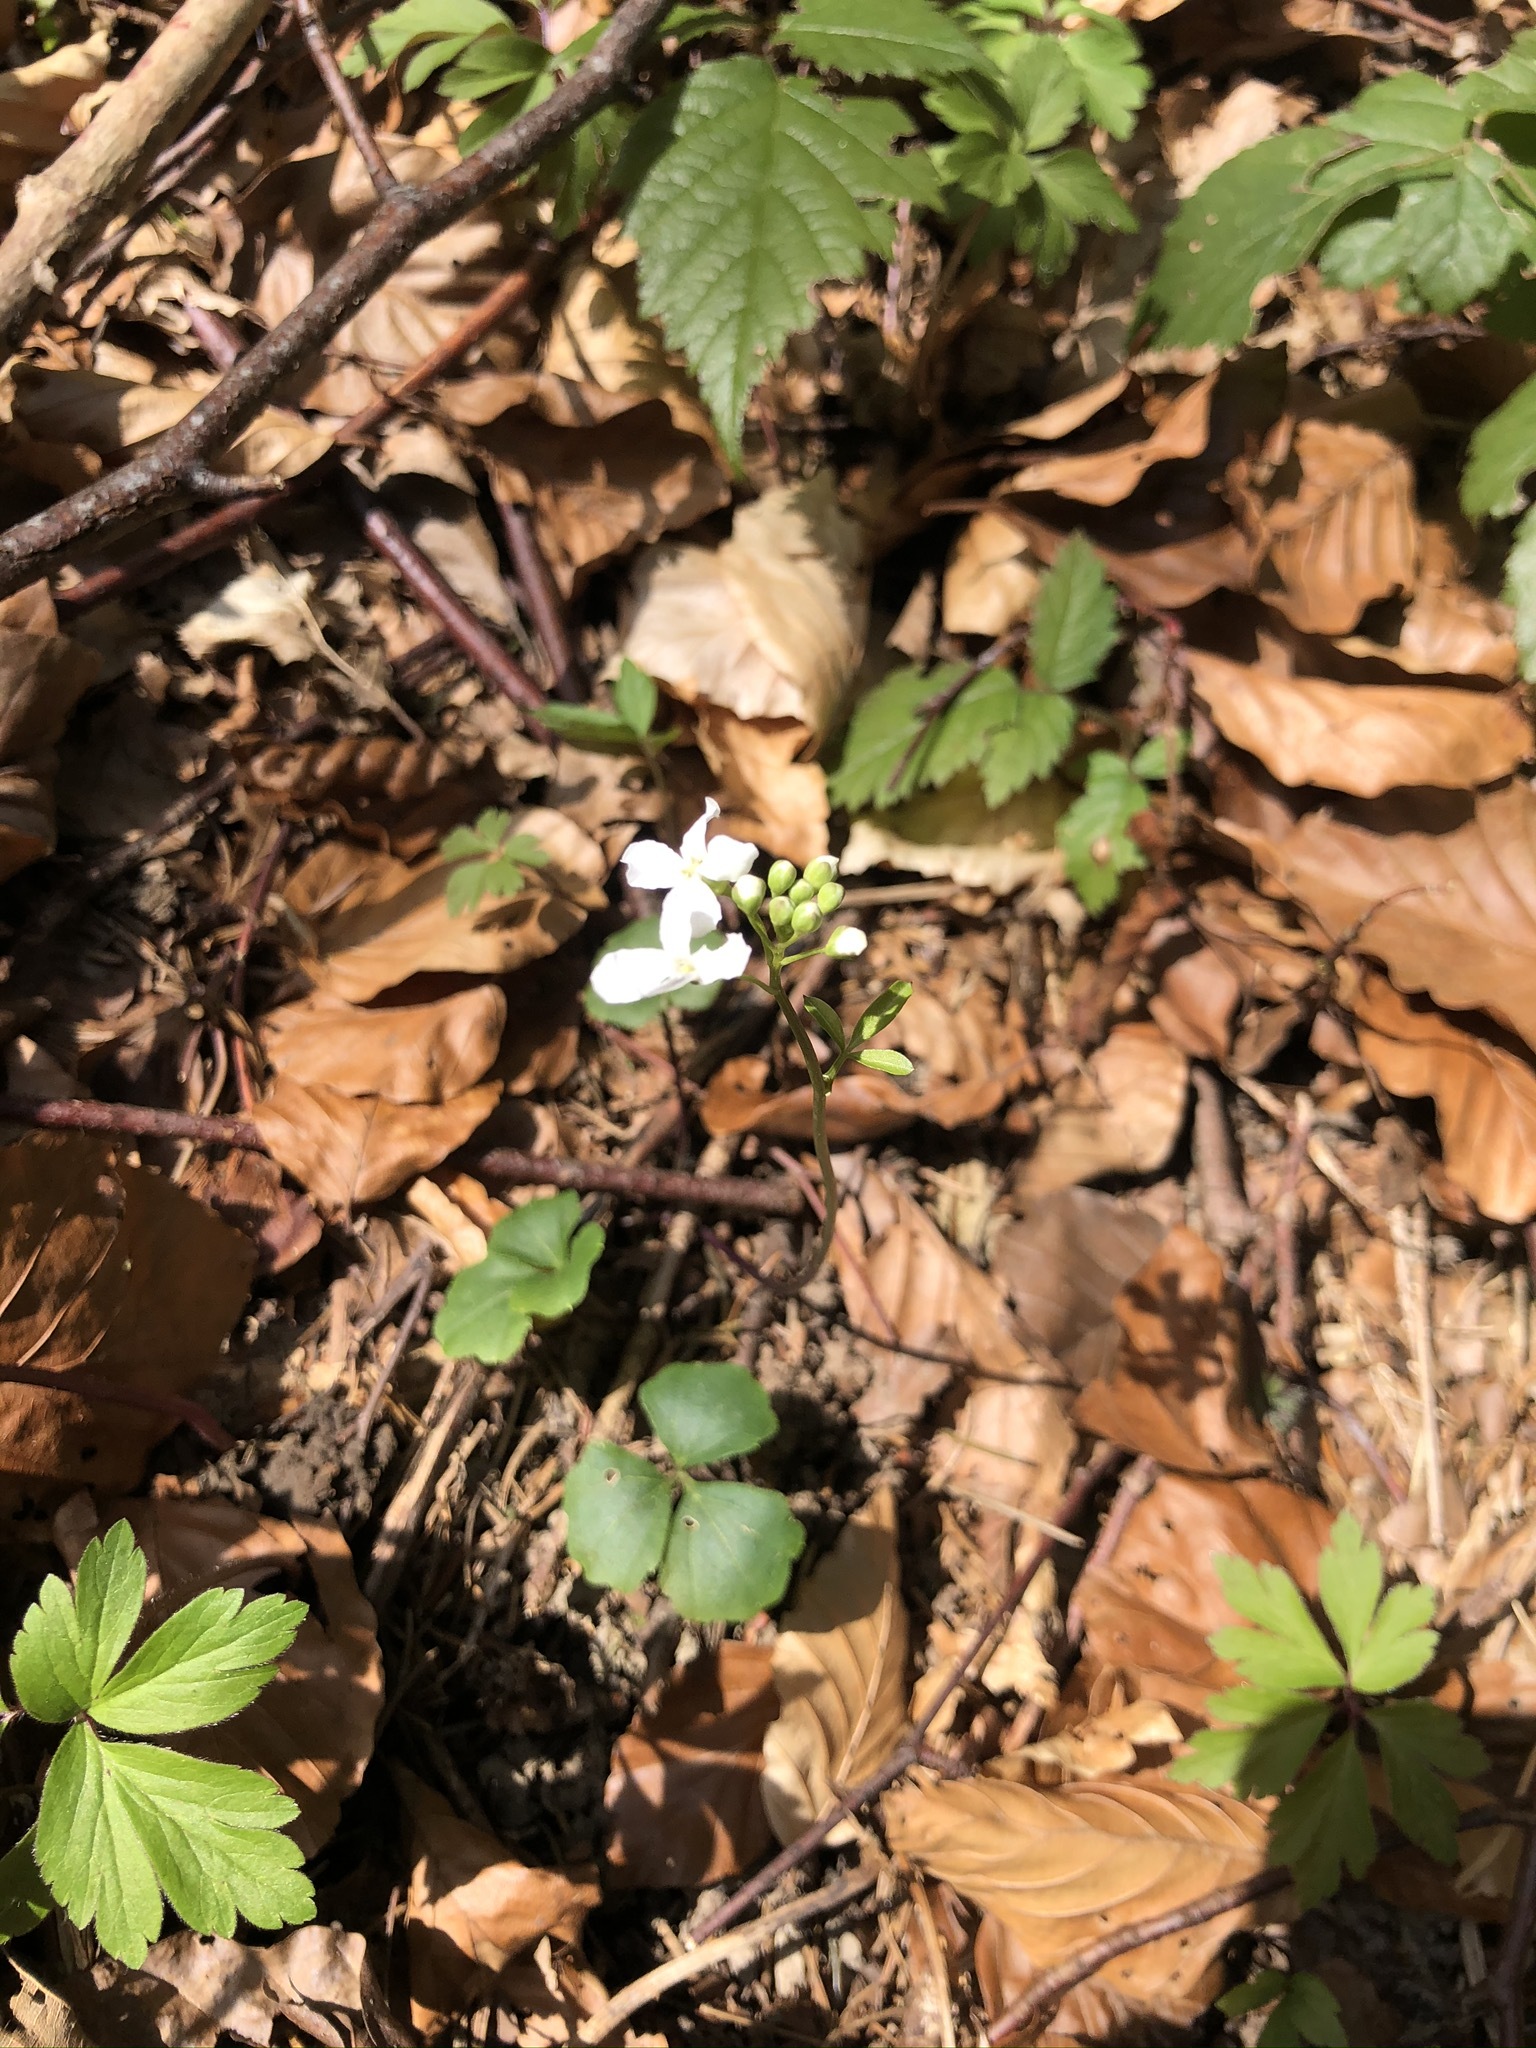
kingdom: Plantae
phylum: Tracheophyta
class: Magnoliopsida
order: Brassicales
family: Brassicaceae
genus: Cardamine
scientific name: Cardamine trifolia
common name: Trefoil cress
